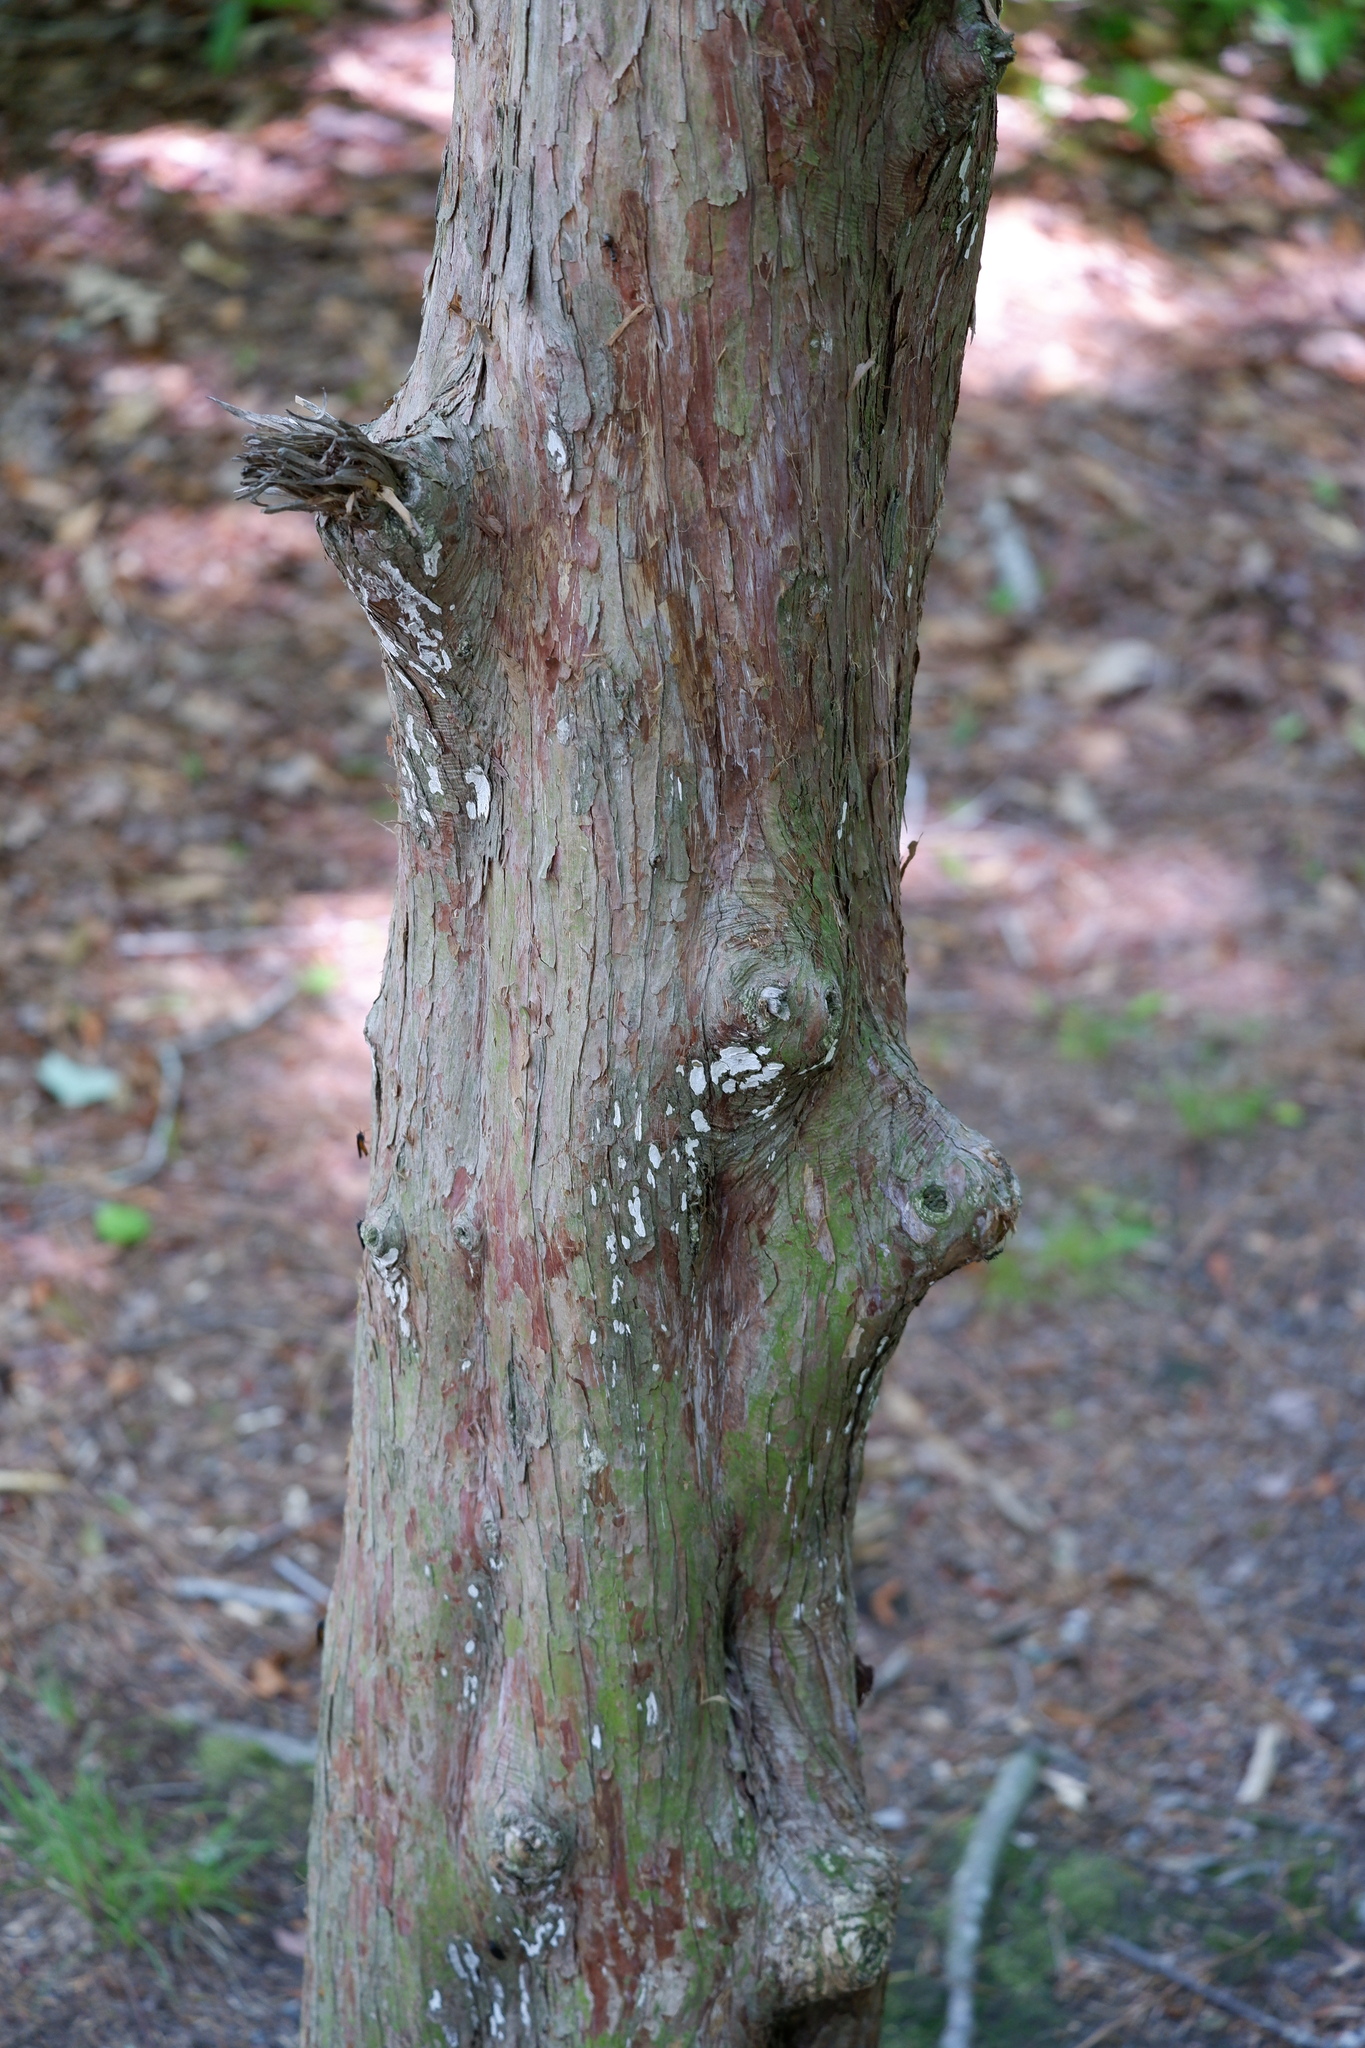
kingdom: Fungi
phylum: Basidiomycota
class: Agaricomycetes
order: Agaricales
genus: Dendrothele
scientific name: Dendrothele nivosa
